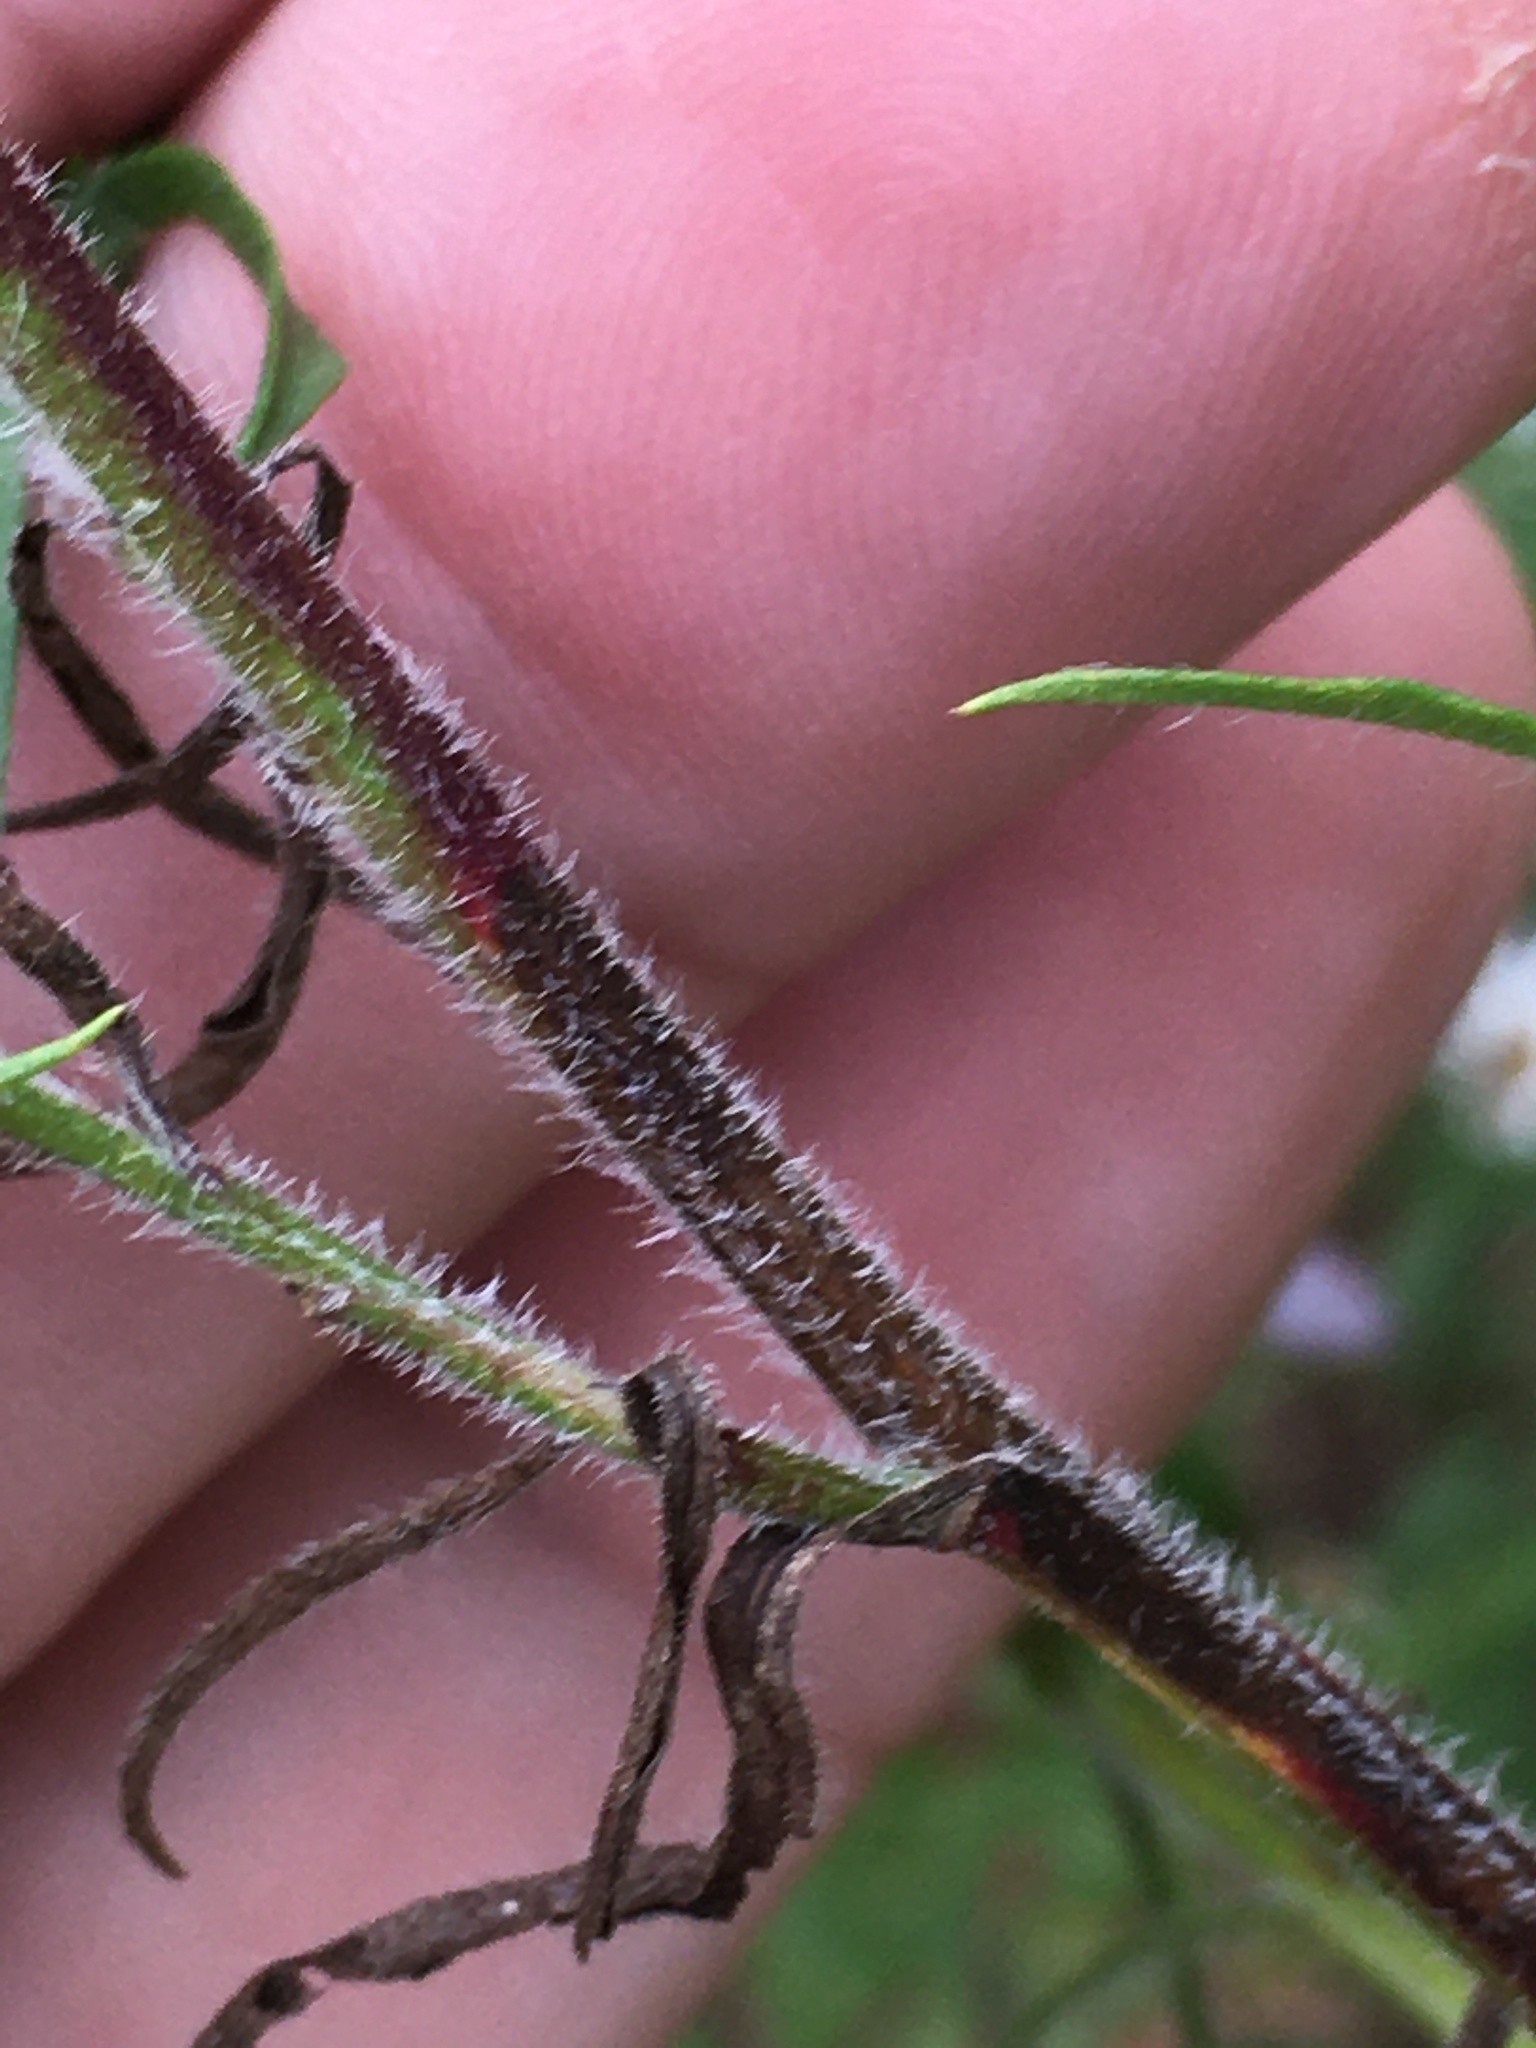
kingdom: Plantae
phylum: Tracheophyta
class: Magnoliopsida
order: Asterales
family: Asteraceae
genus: Symphyotrichum
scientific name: Symphyotrichum pilosum
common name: Awl aster
